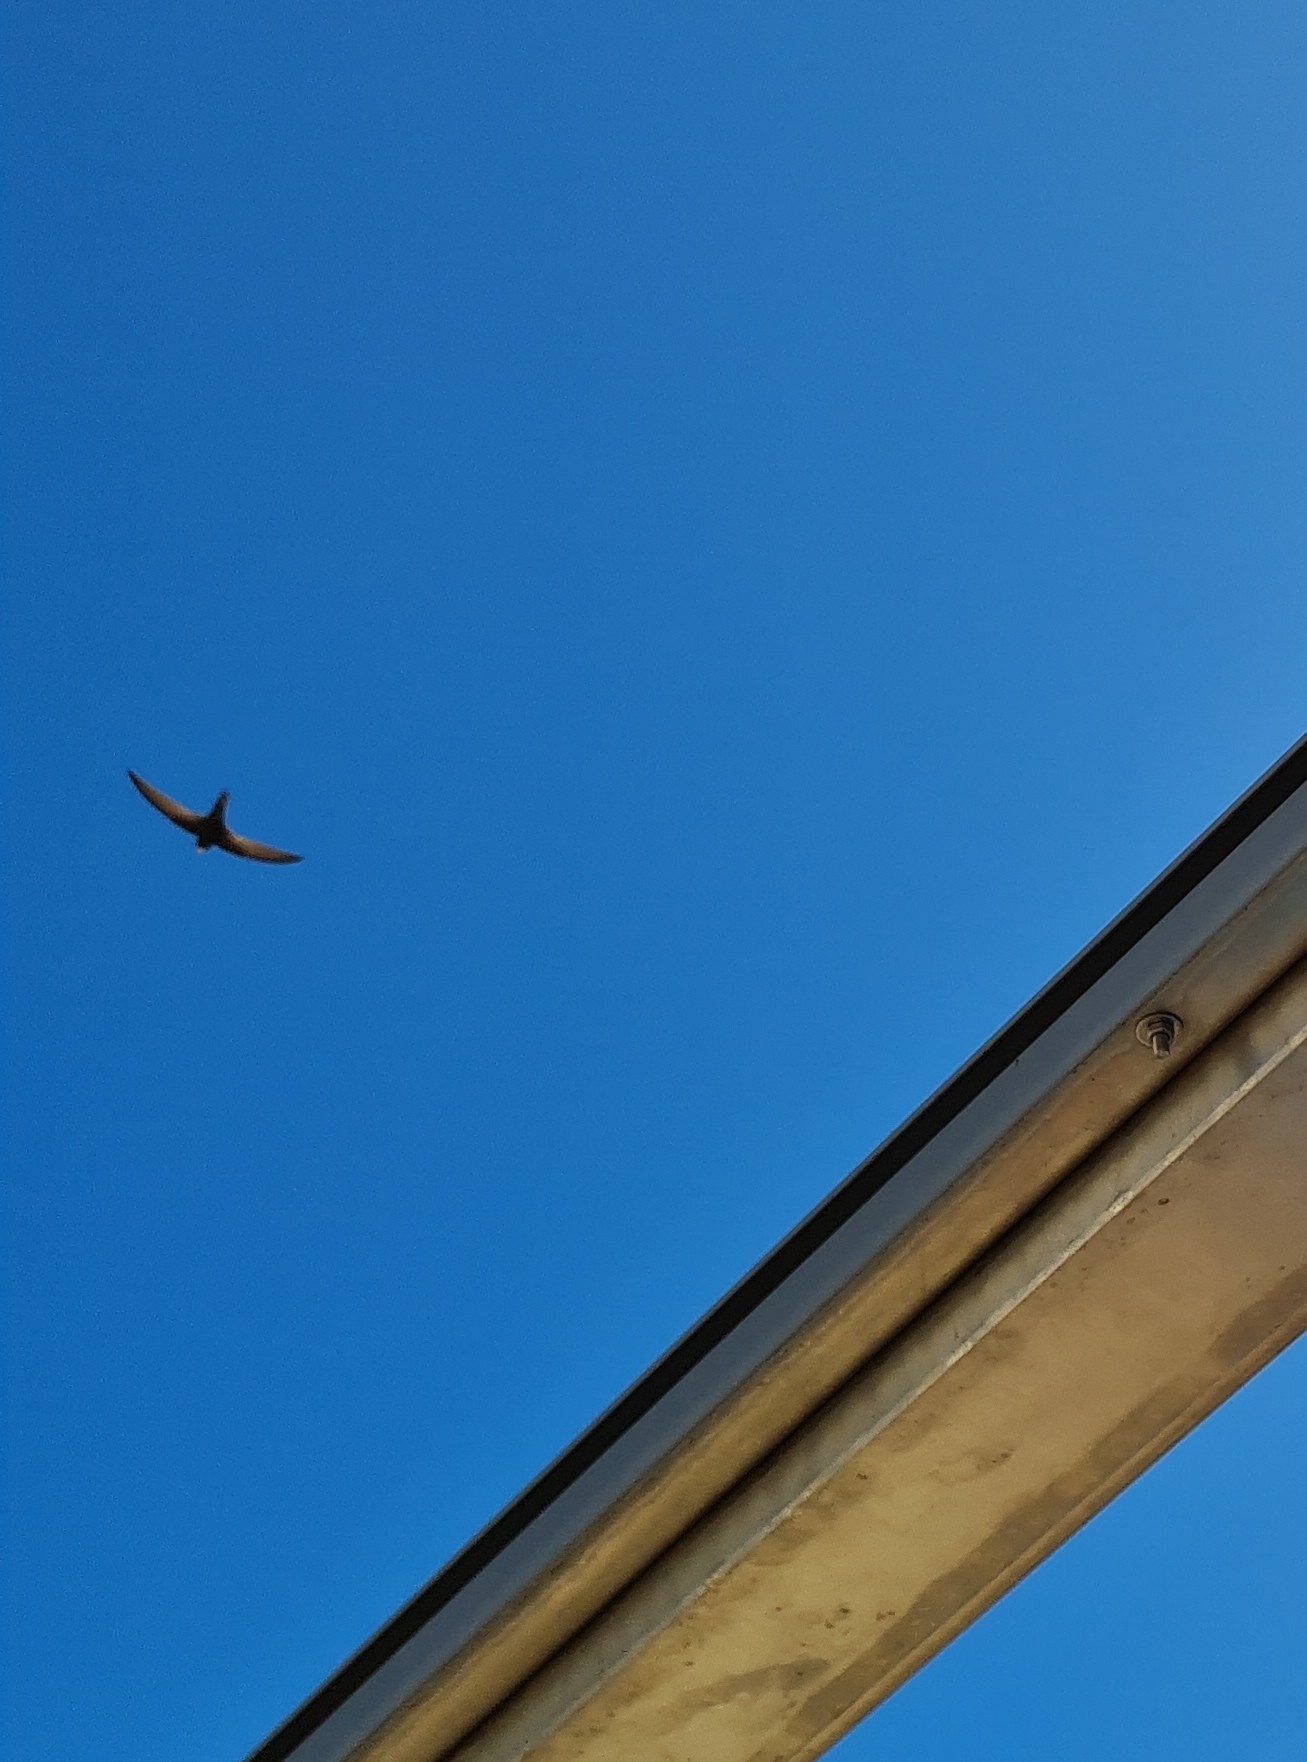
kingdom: Animalia
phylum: Chordata
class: Aves
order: Apodiformes
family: Apodidae
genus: Apus
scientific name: Apus apus
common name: Common swift
